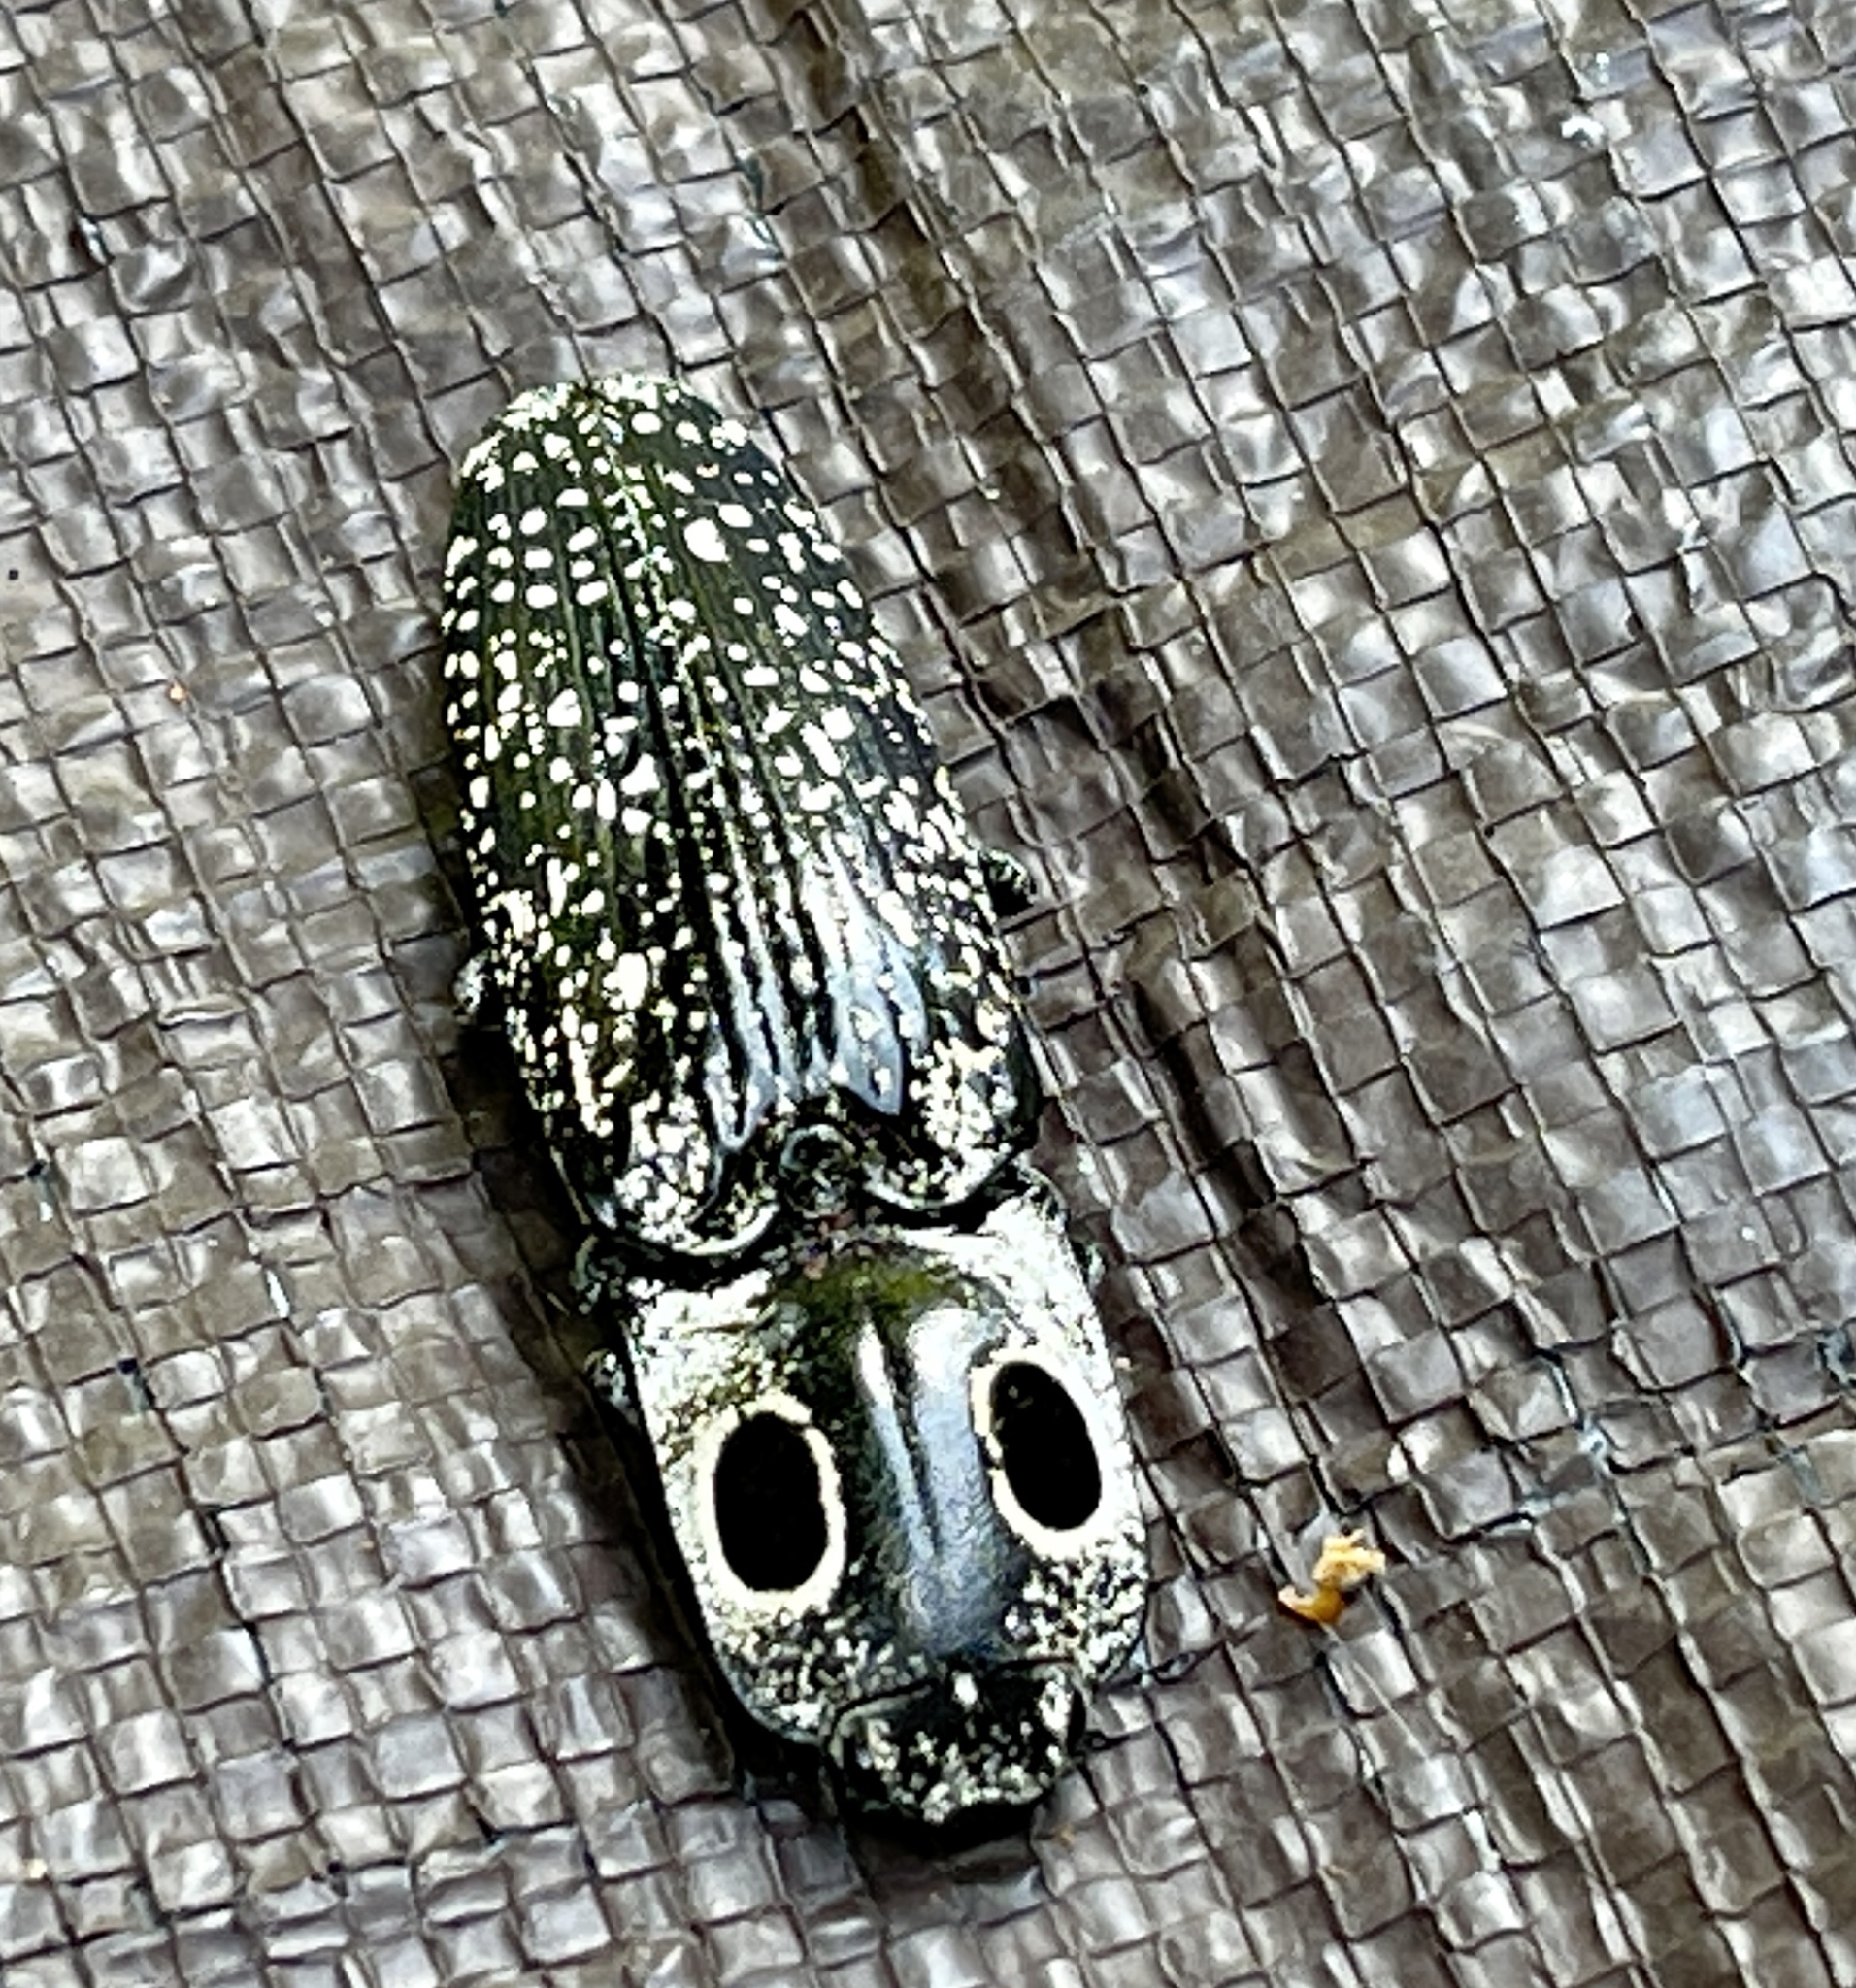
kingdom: Animalia
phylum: Arthropoda
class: Insecta
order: Coleoptera
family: Elateridae
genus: Alaus
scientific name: Alaus oculatus
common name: Eastern eyed click beetle
